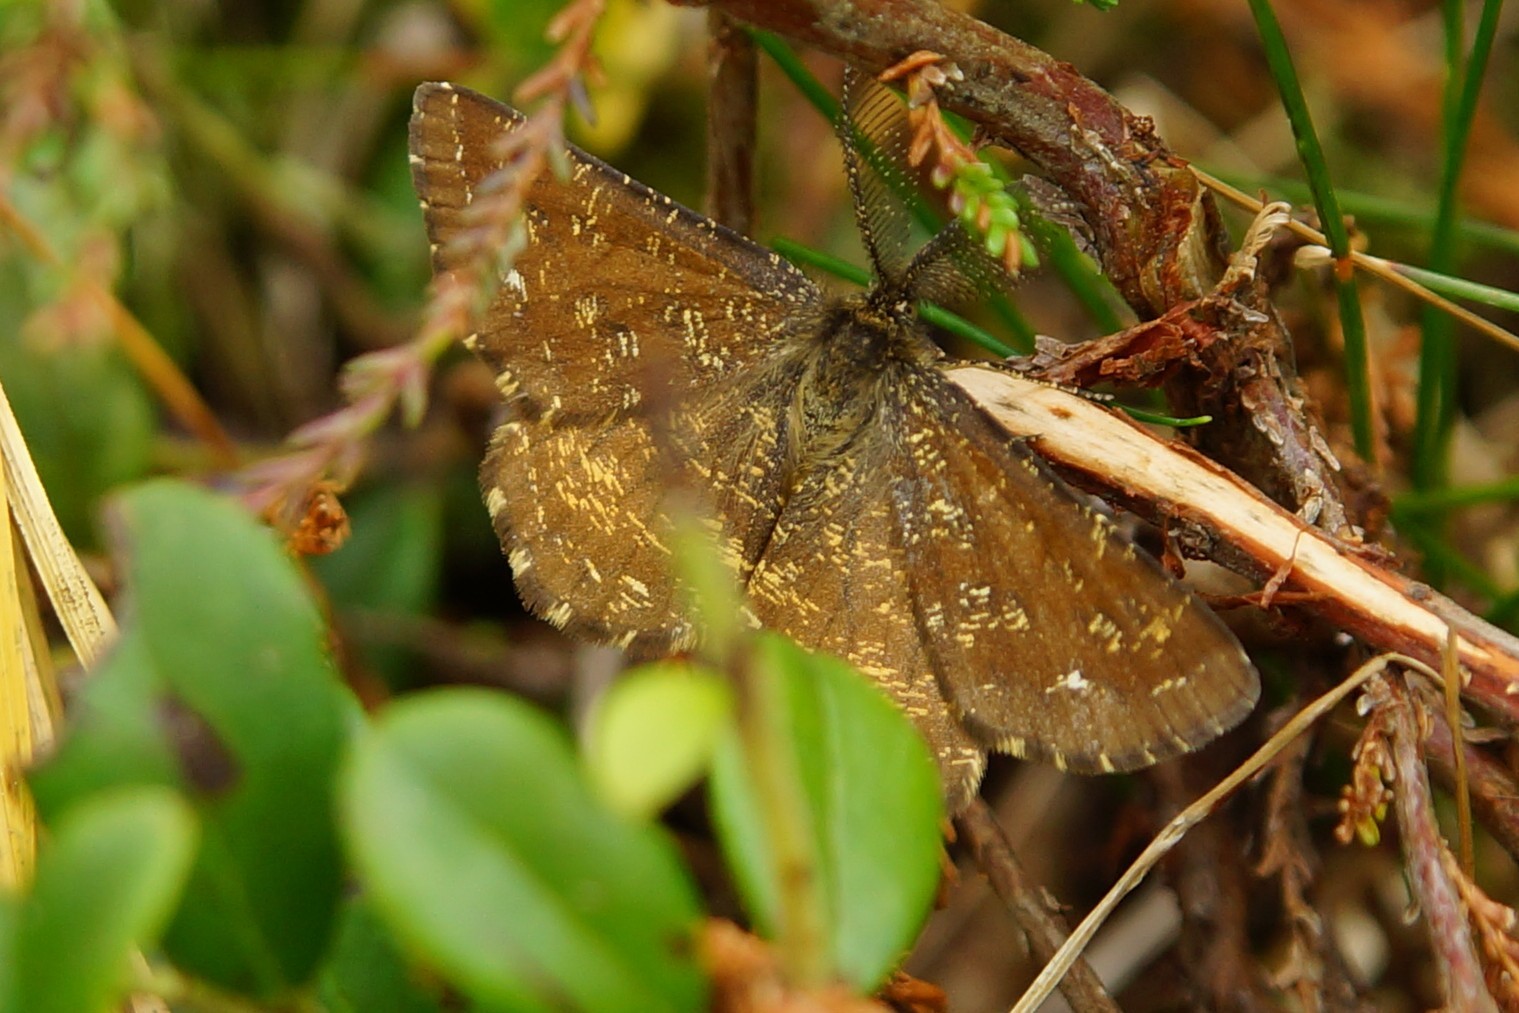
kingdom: Animalia
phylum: Arthropoda
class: Insecta
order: Lepidoptera
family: Geometridae
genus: Ematurga
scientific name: Ematurga atomaria
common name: Common heath
